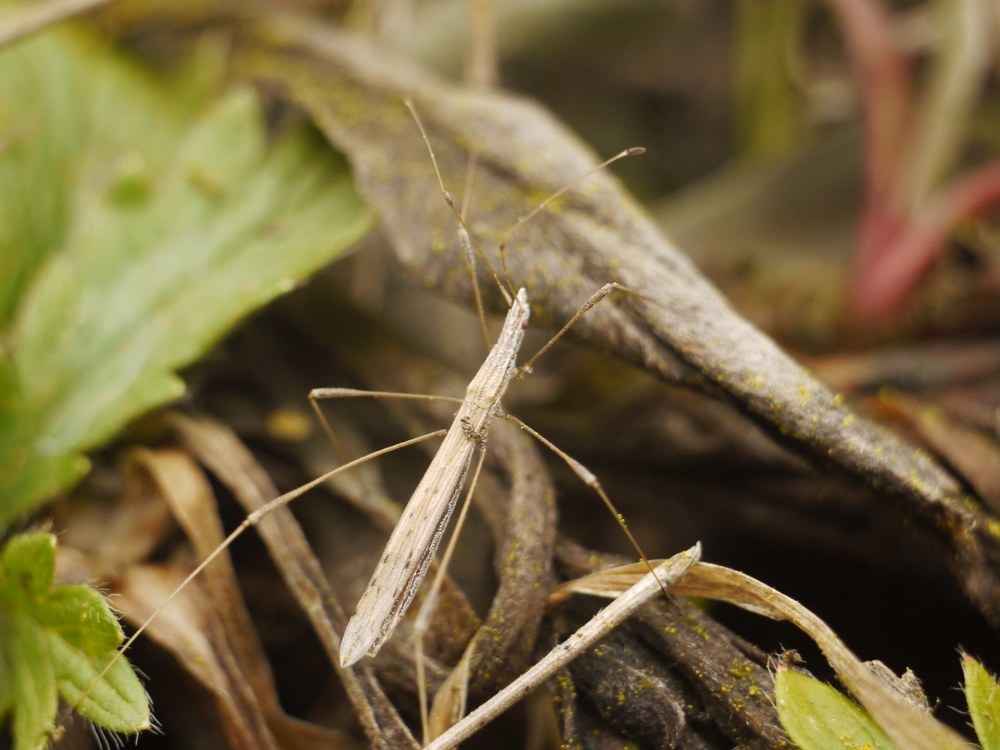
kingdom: Animalia
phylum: Arthropoda
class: Insecta
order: Hemiptera
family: Berytidae
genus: Neides
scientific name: Neides tipularius
